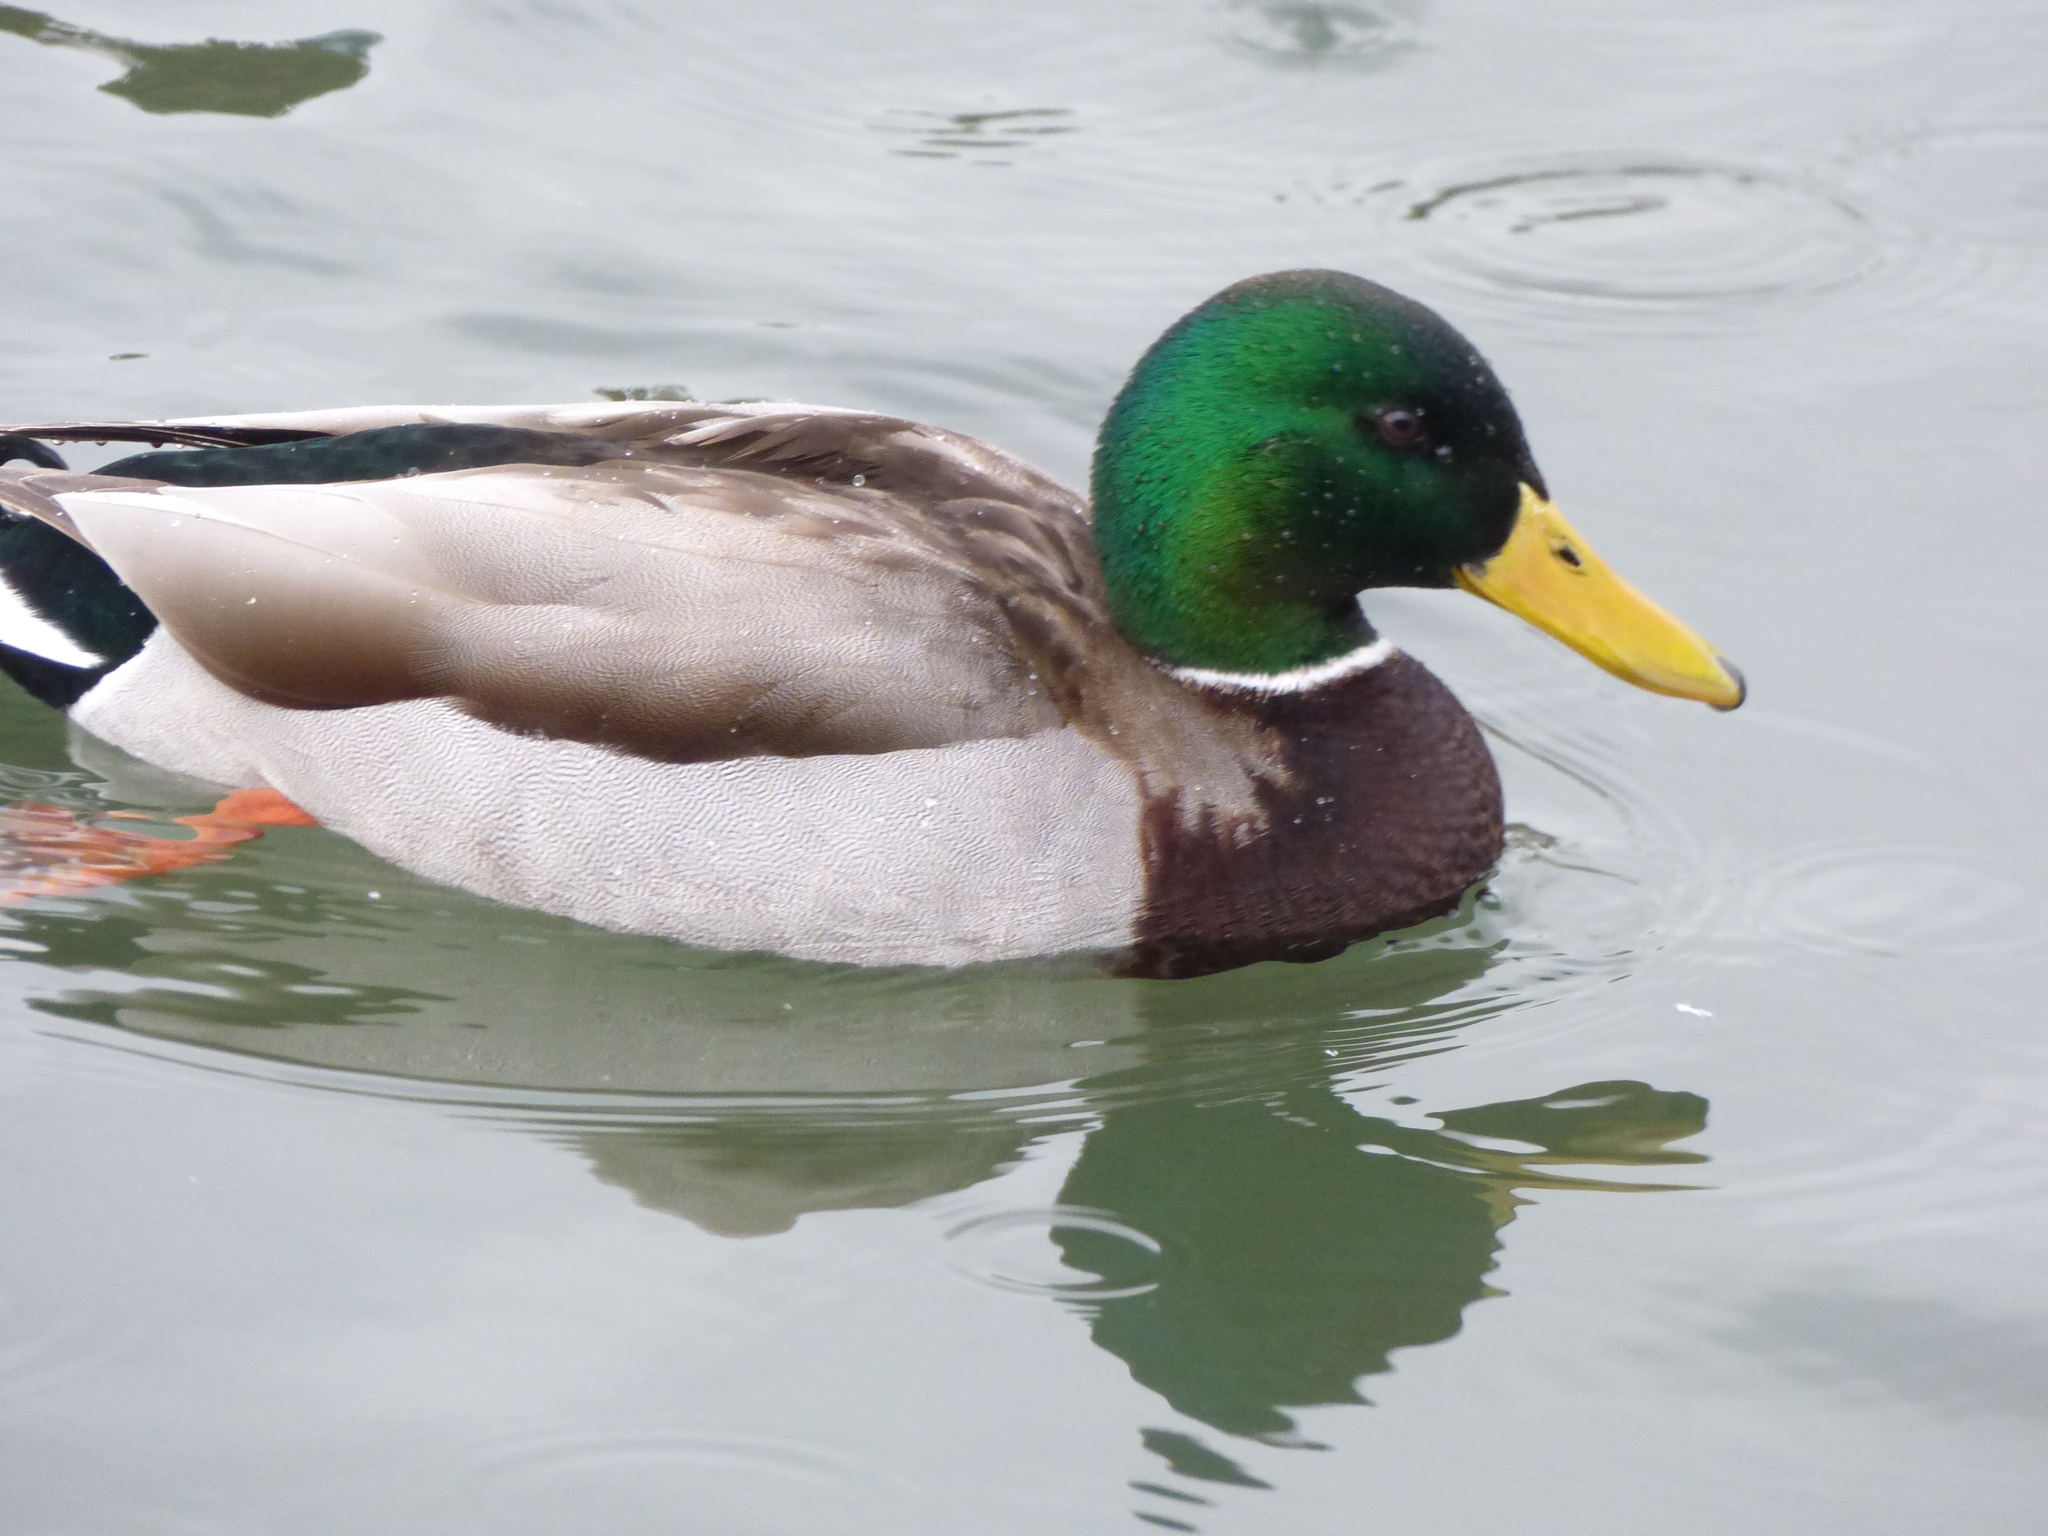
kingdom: Animalia
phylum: Chordata
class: Aves
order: Anseriformes
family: Anatidae
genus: Anas
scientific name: Anas platyrhynchos
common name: Mallard
